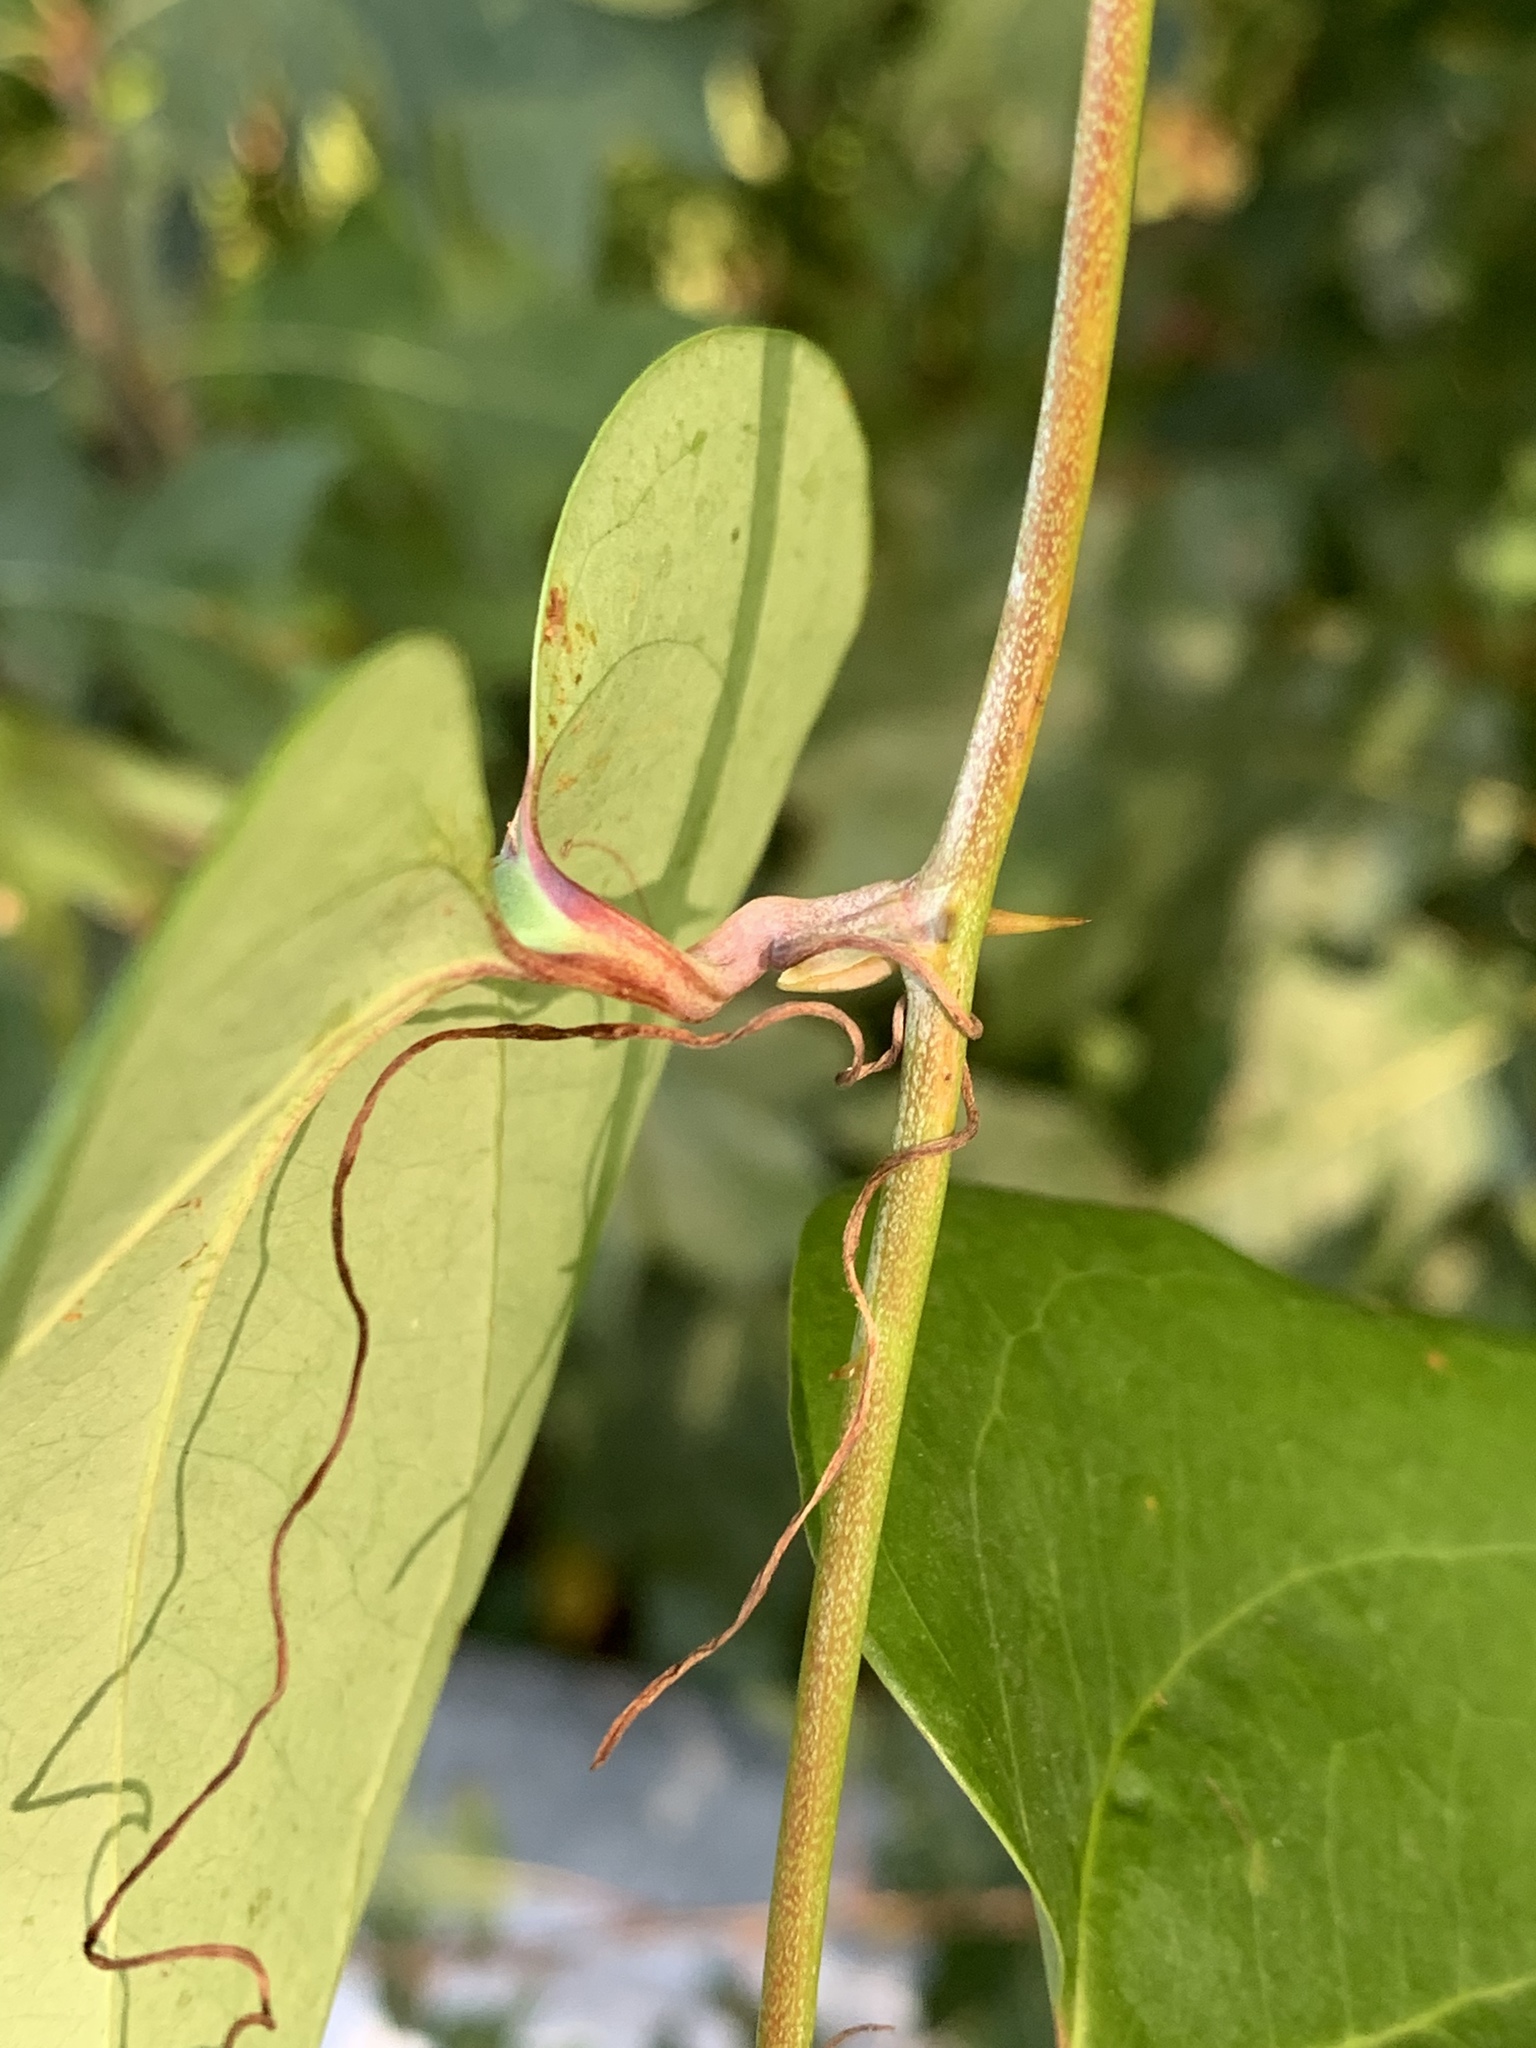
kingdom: Plantae
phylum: Tracheophyta
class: Liliopsida
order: Liliales
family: Smilacaceae
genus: Smilax
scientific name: Smilax glauca
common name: Cat greenbrier
